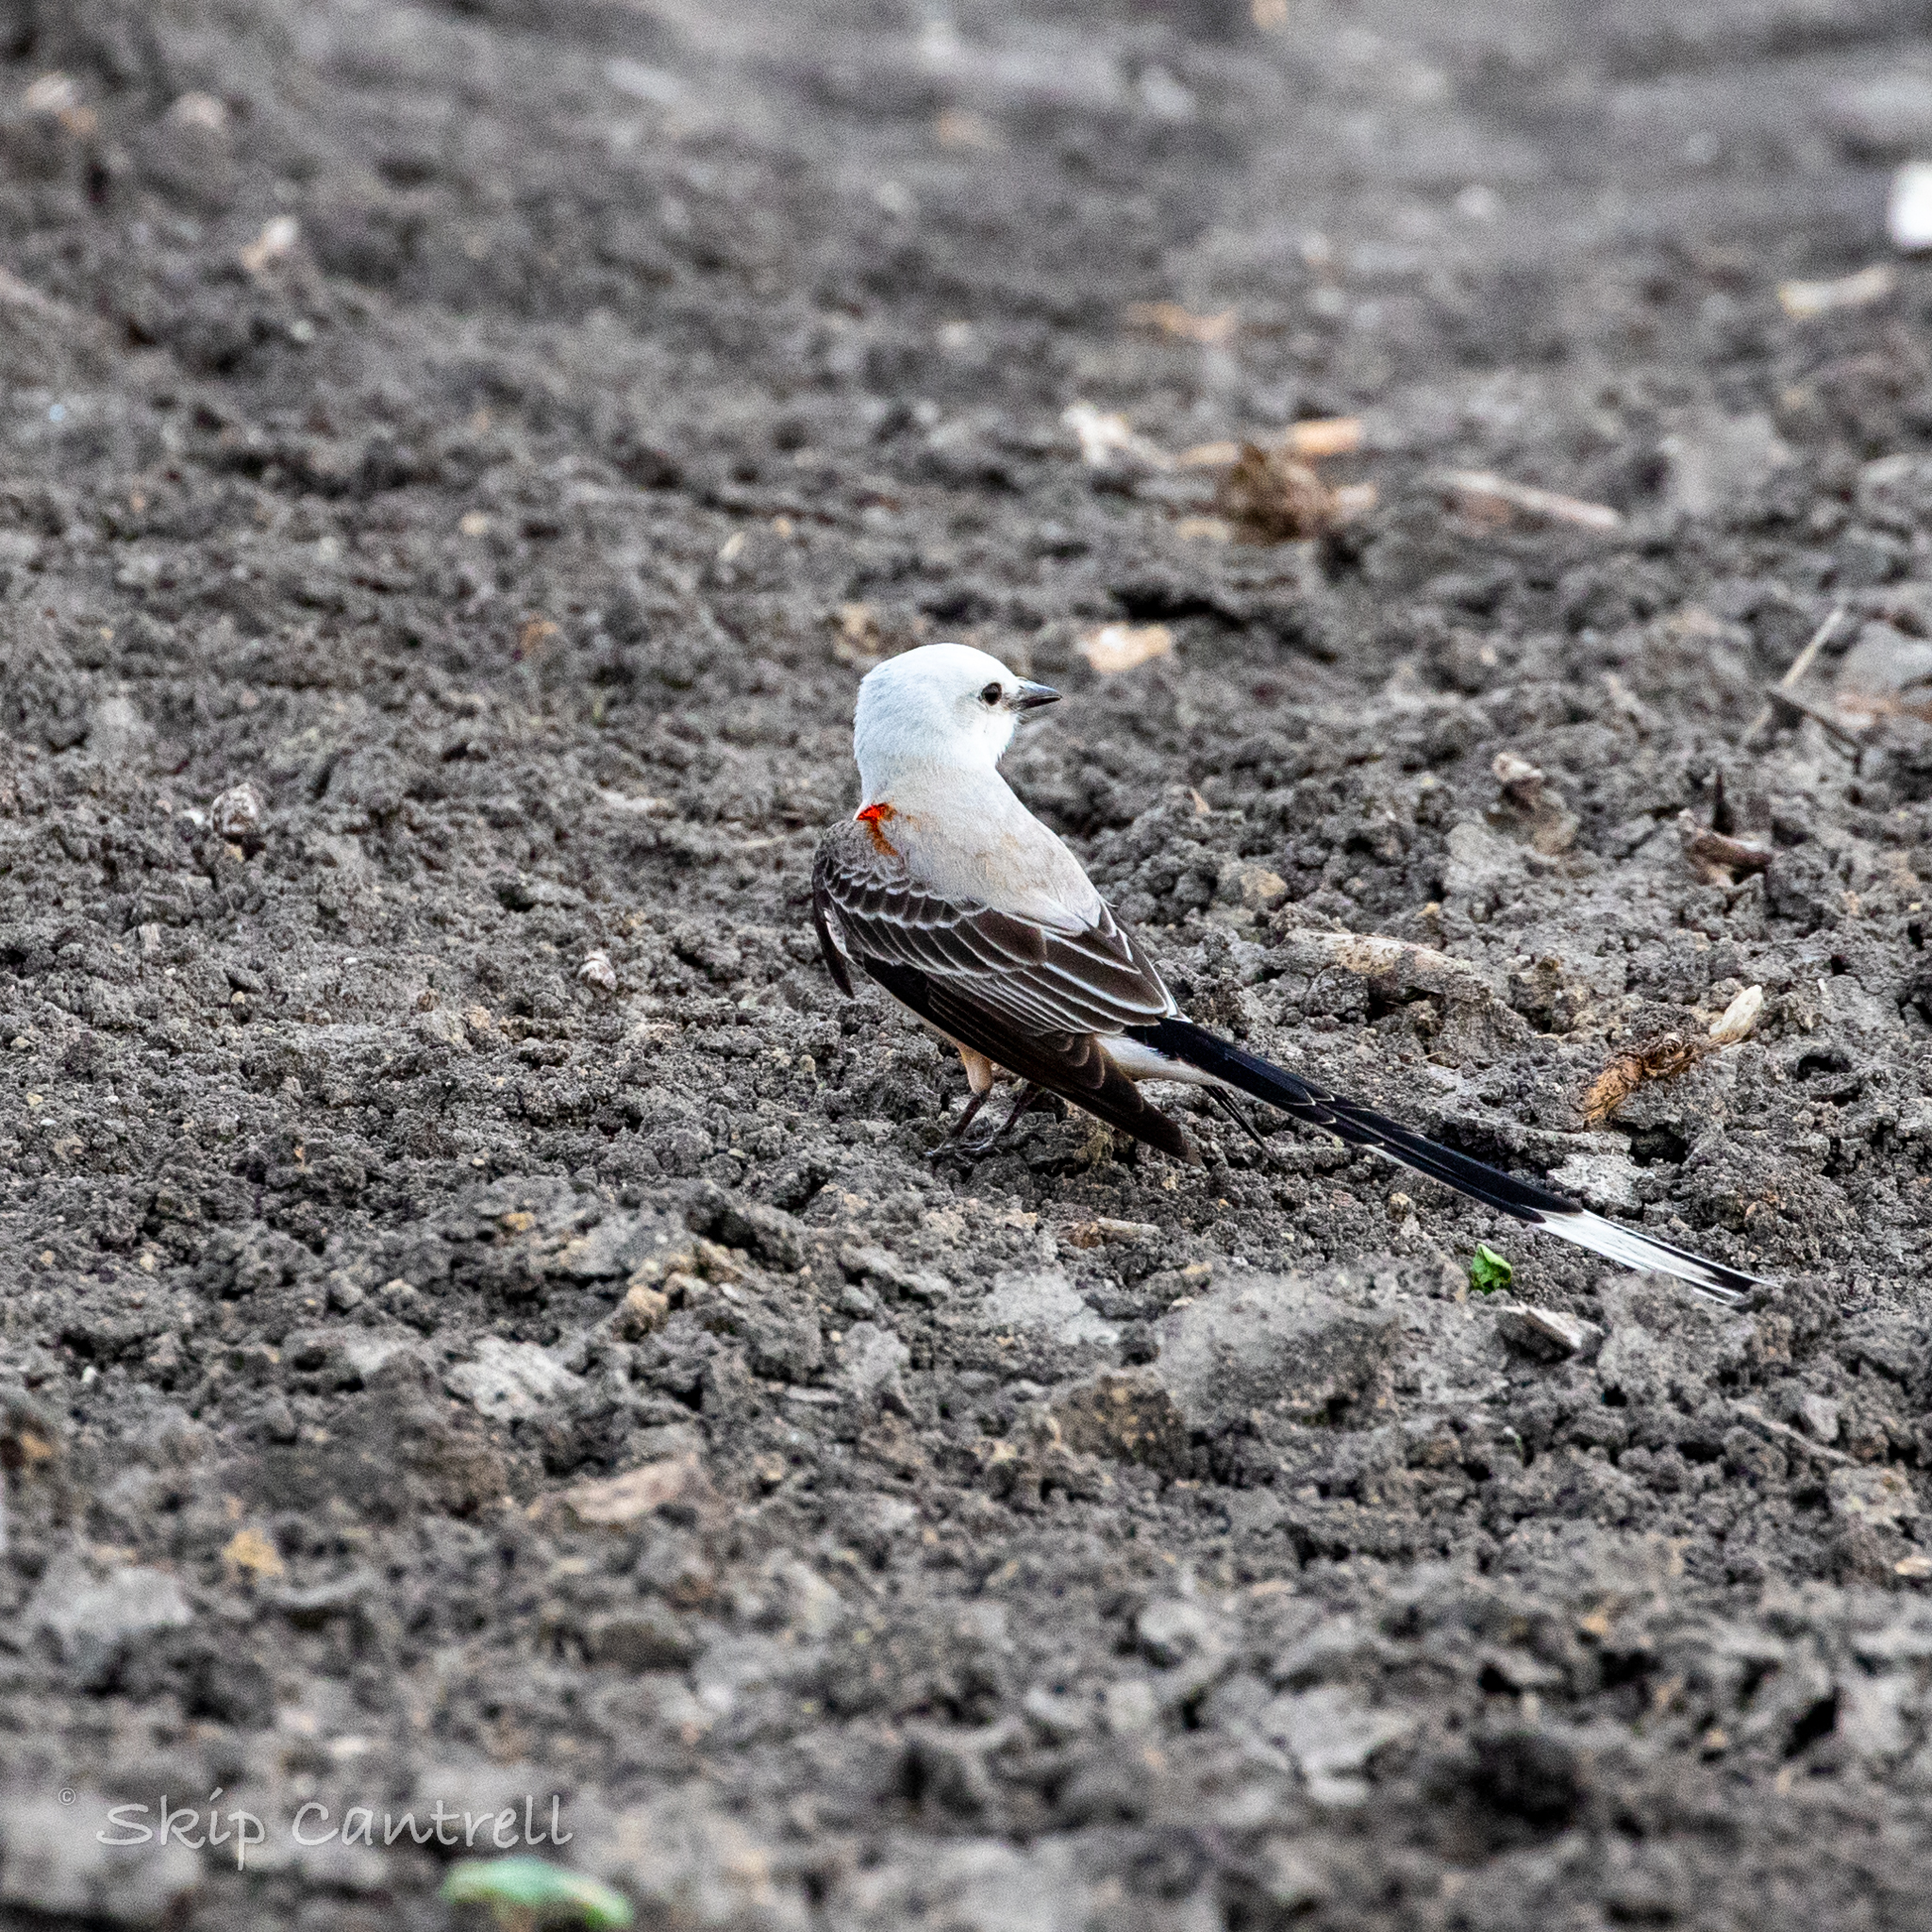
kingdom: Animalia
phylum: Chordata
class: Aves
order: Passeriformes
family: Tyrannidae
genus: Tyrannus
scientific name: Tyrannus forficatus
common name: Scissor-tailed flycatcher
